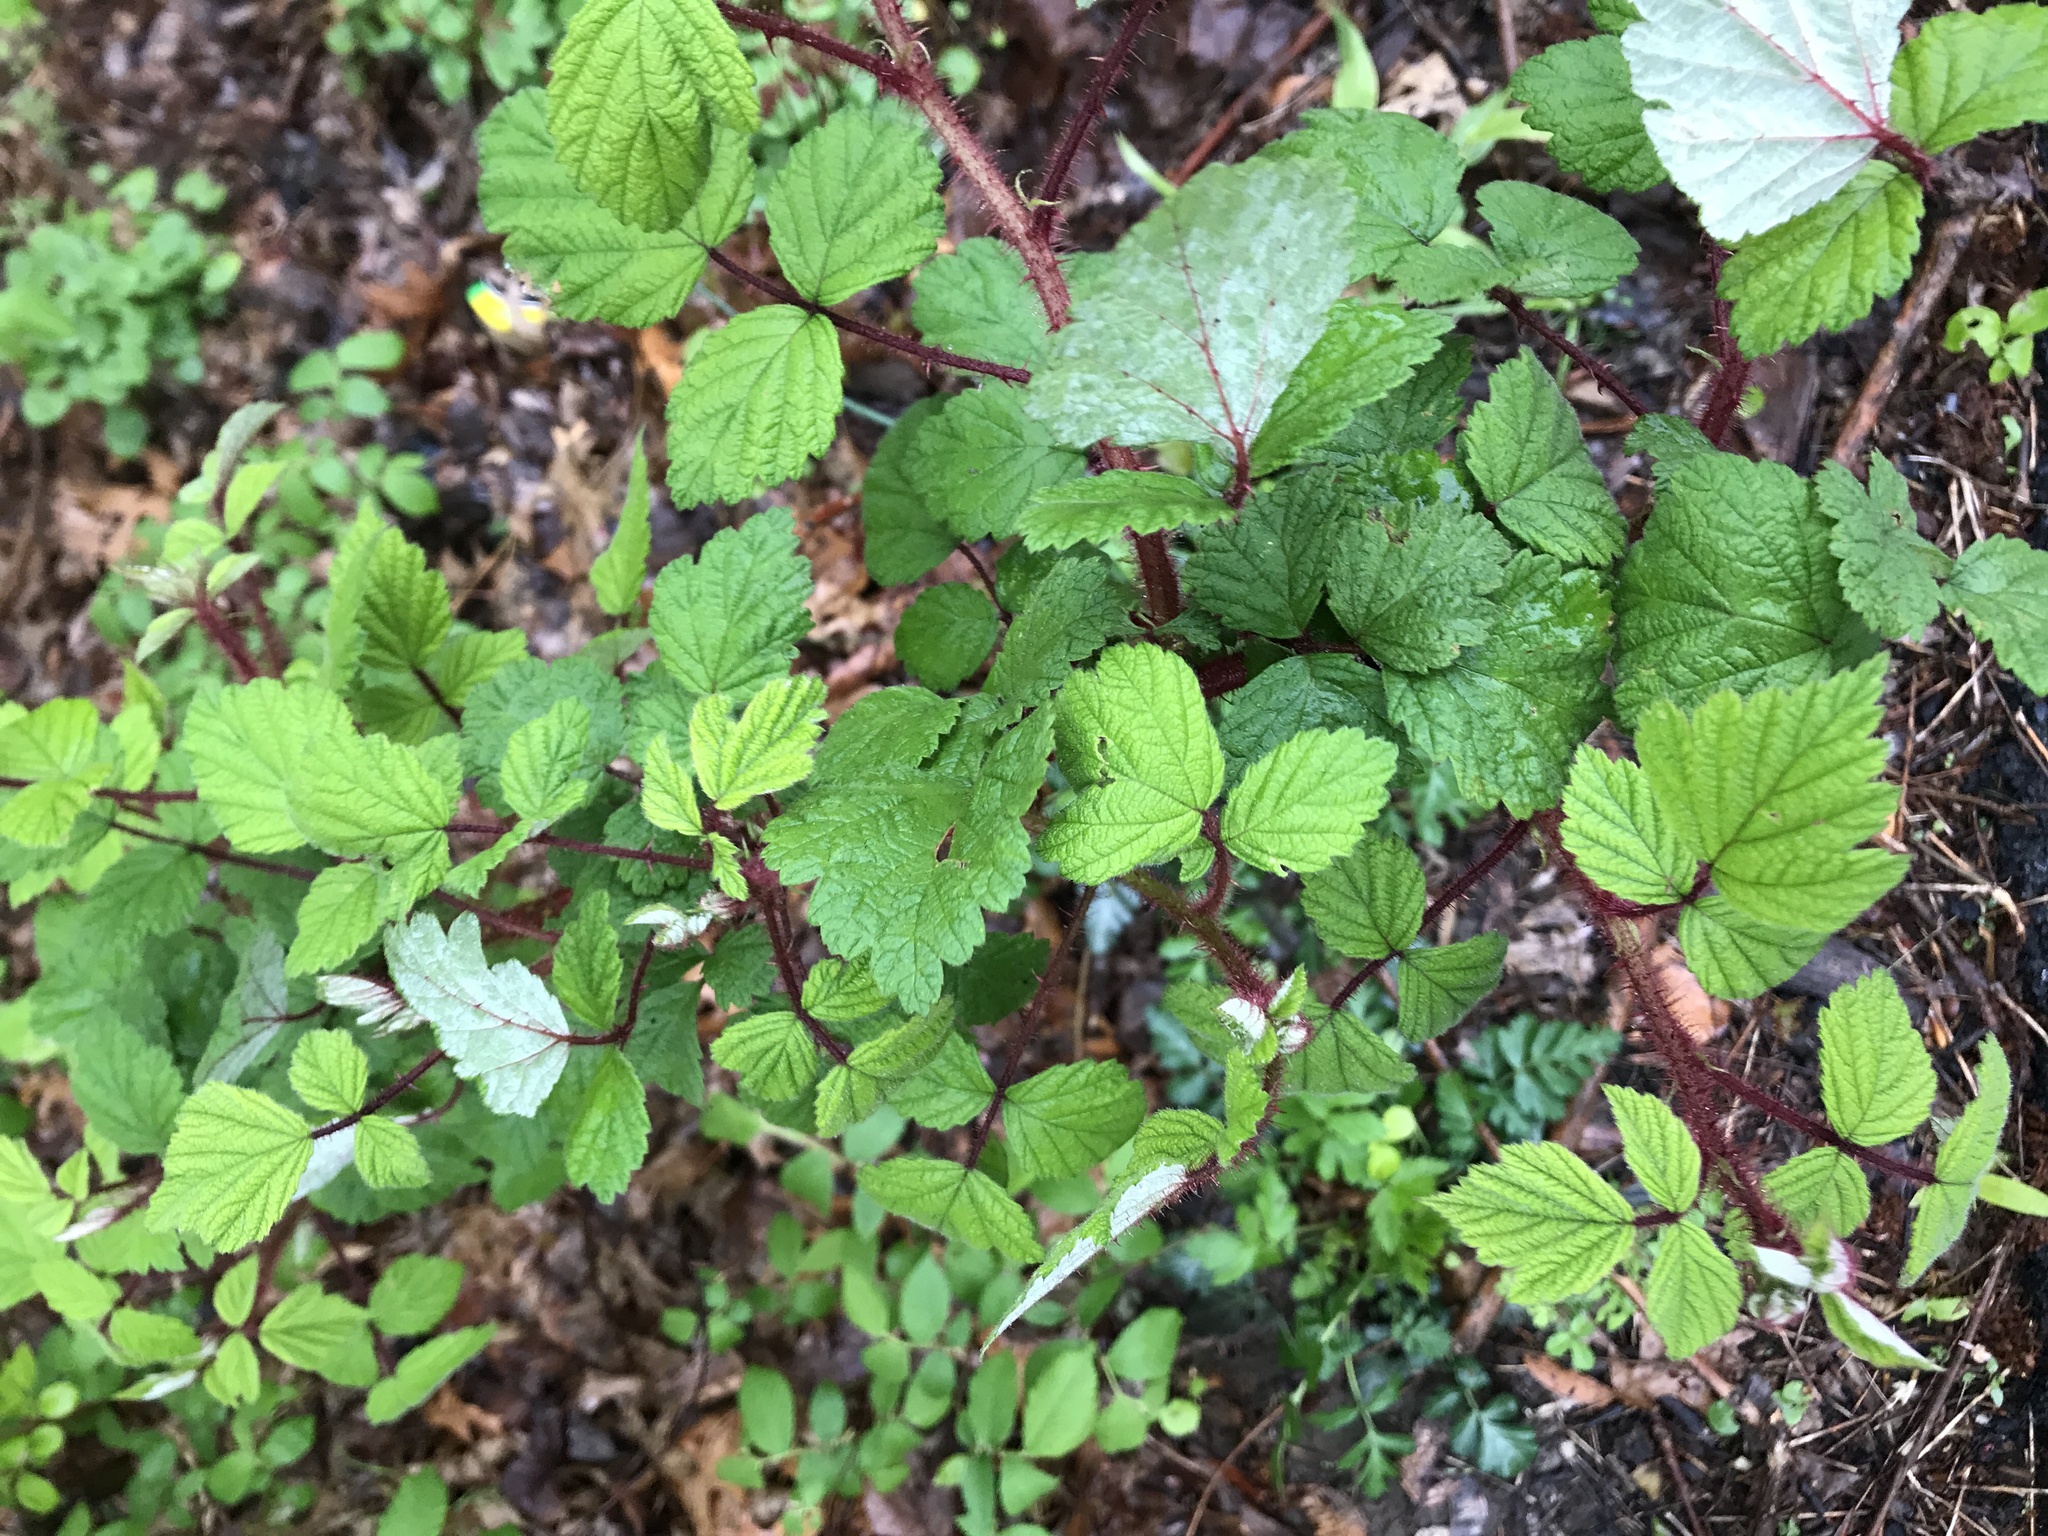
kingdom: Plantae
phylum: Tracheophyta
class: Magnoliopsida
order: Rosales
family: Rosaceae
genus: Rubus
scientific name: Rubus phoenicolasius
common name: Japanese wineberry
